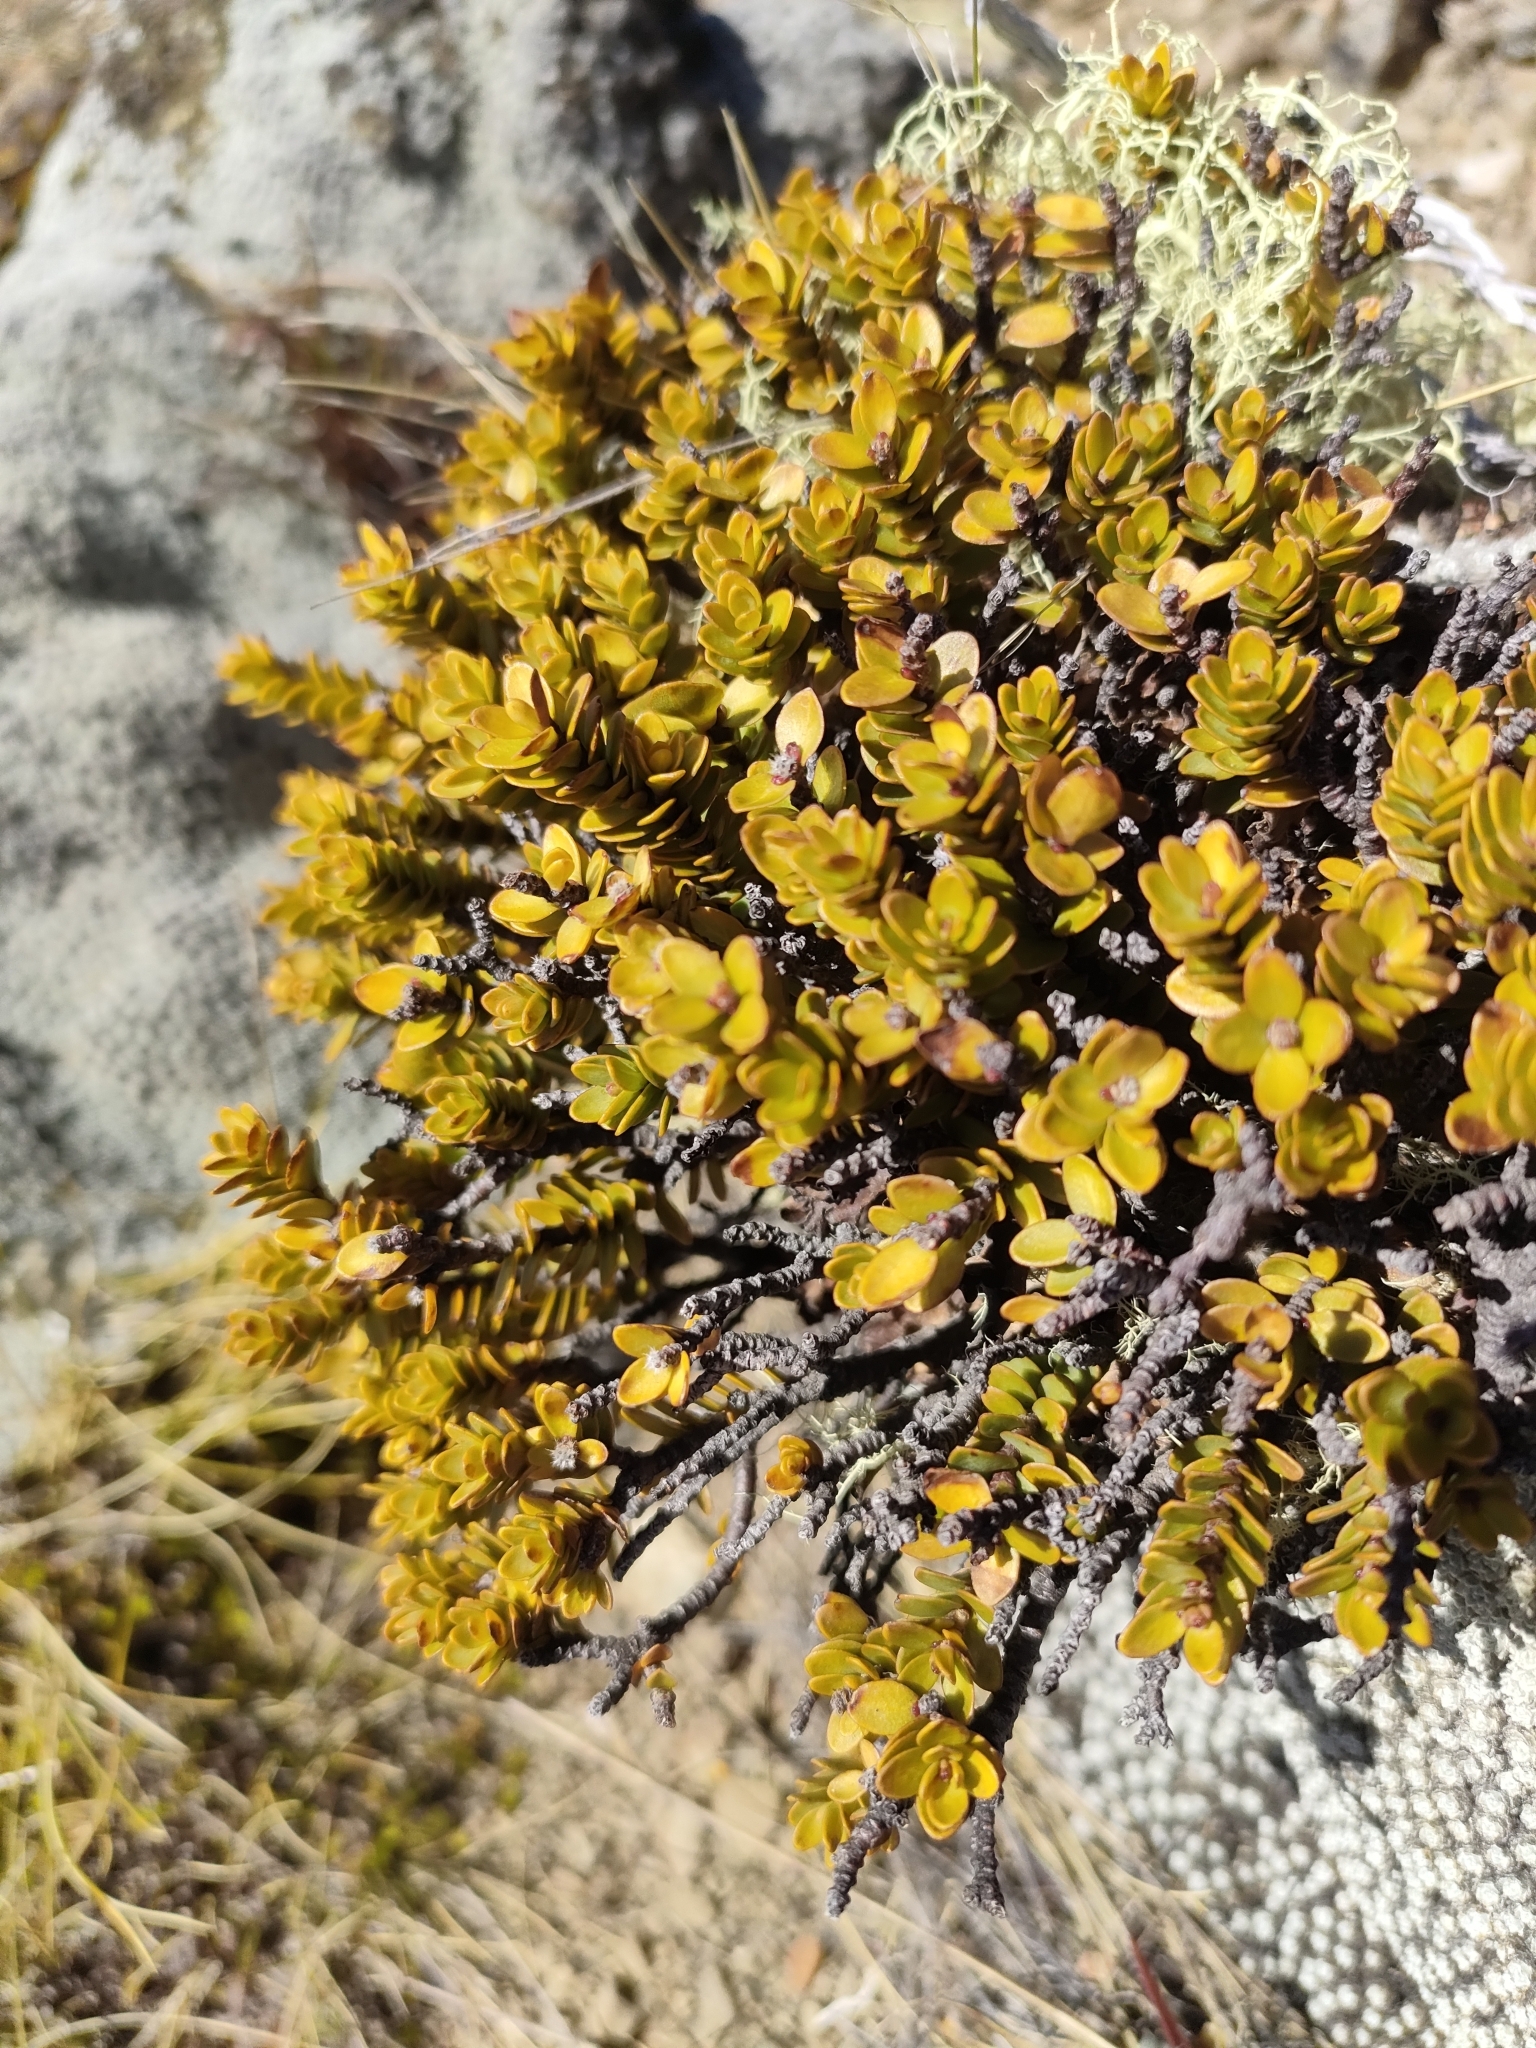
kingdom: Plantae
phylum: Tracheophyta
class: Magnoliopsida
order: Malvales
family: Thymelaeaceae
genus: Pimelea
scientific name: Pimelea traversii
